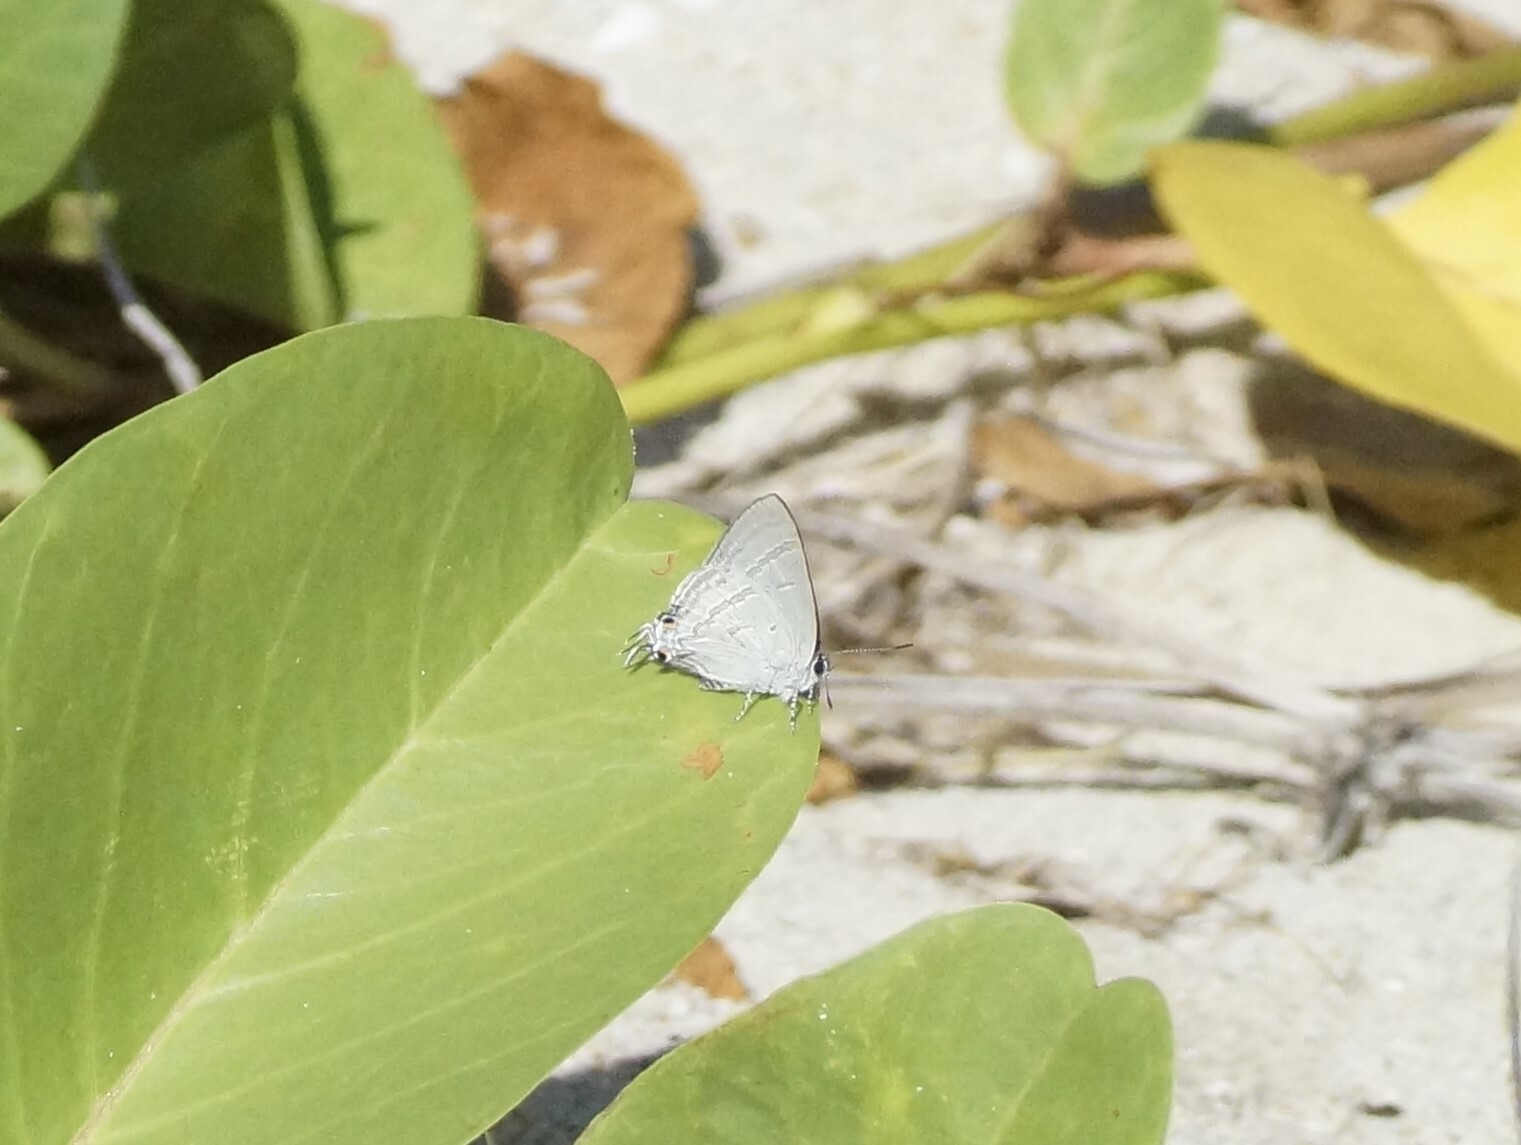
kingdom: Animalia
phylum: Arthropoda
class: Insecta
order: Lepidoptera
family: Lycaenidae
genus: Hypolycaena
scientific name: Hypolycaena phorbas
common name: Black-spotted flash
